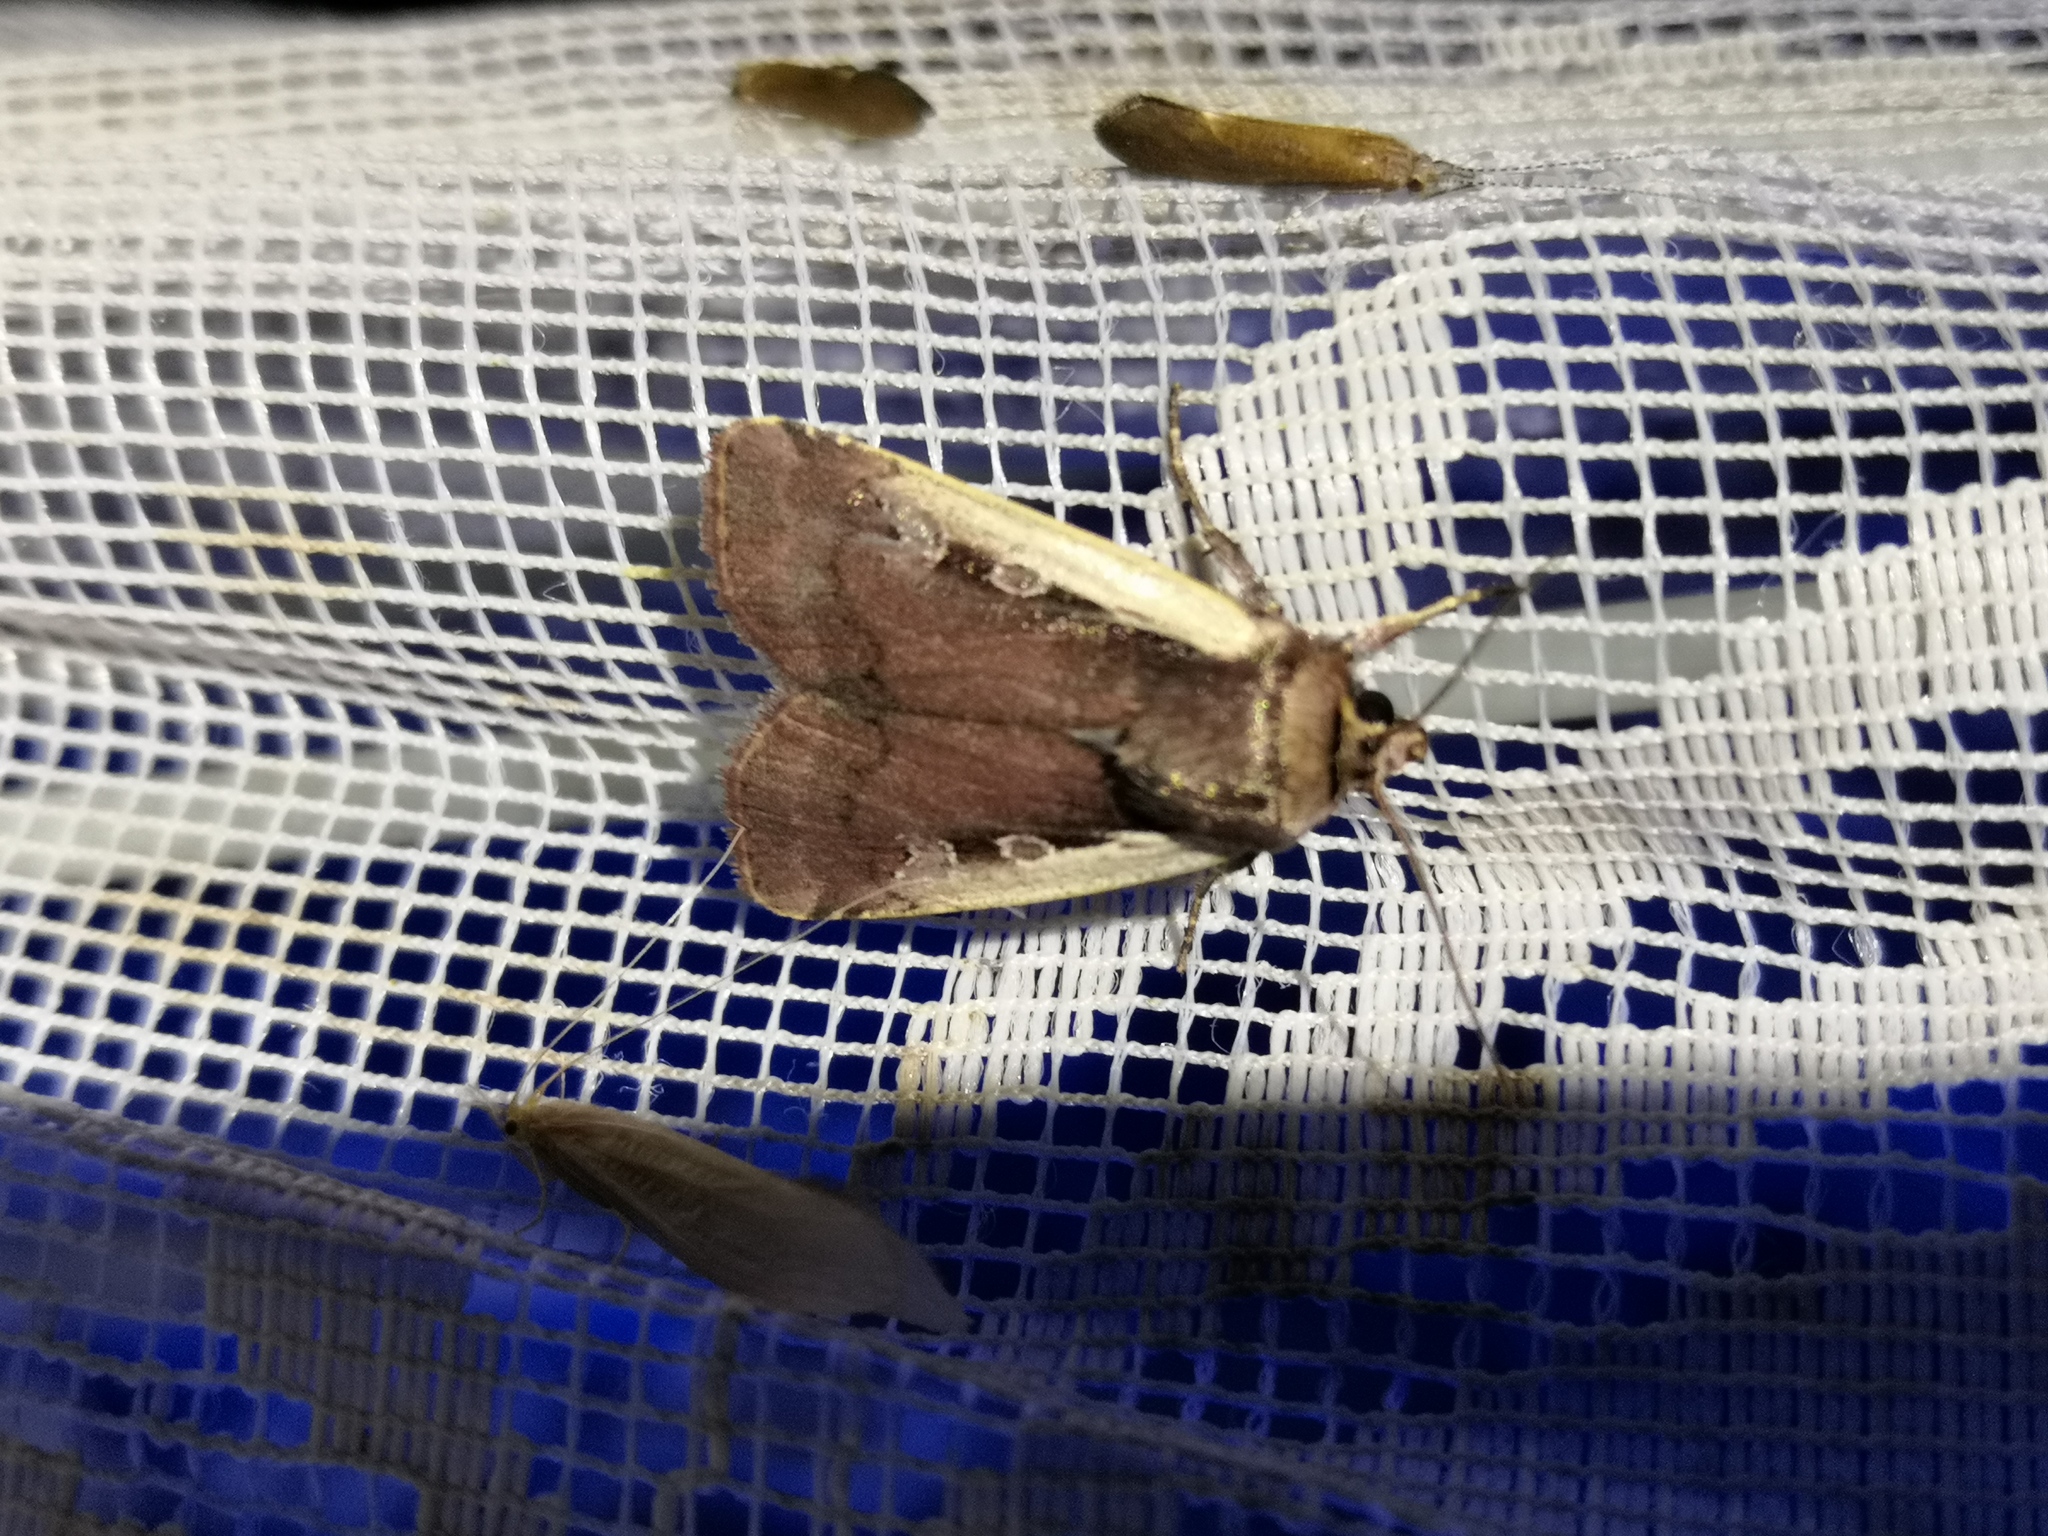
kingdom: Animalia
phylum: Arthropoda
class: Insecta
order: Lepidoptera
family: Noctuidae
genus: Ochropleura
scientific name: Ochropleura plecta
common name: Flame shoulder
